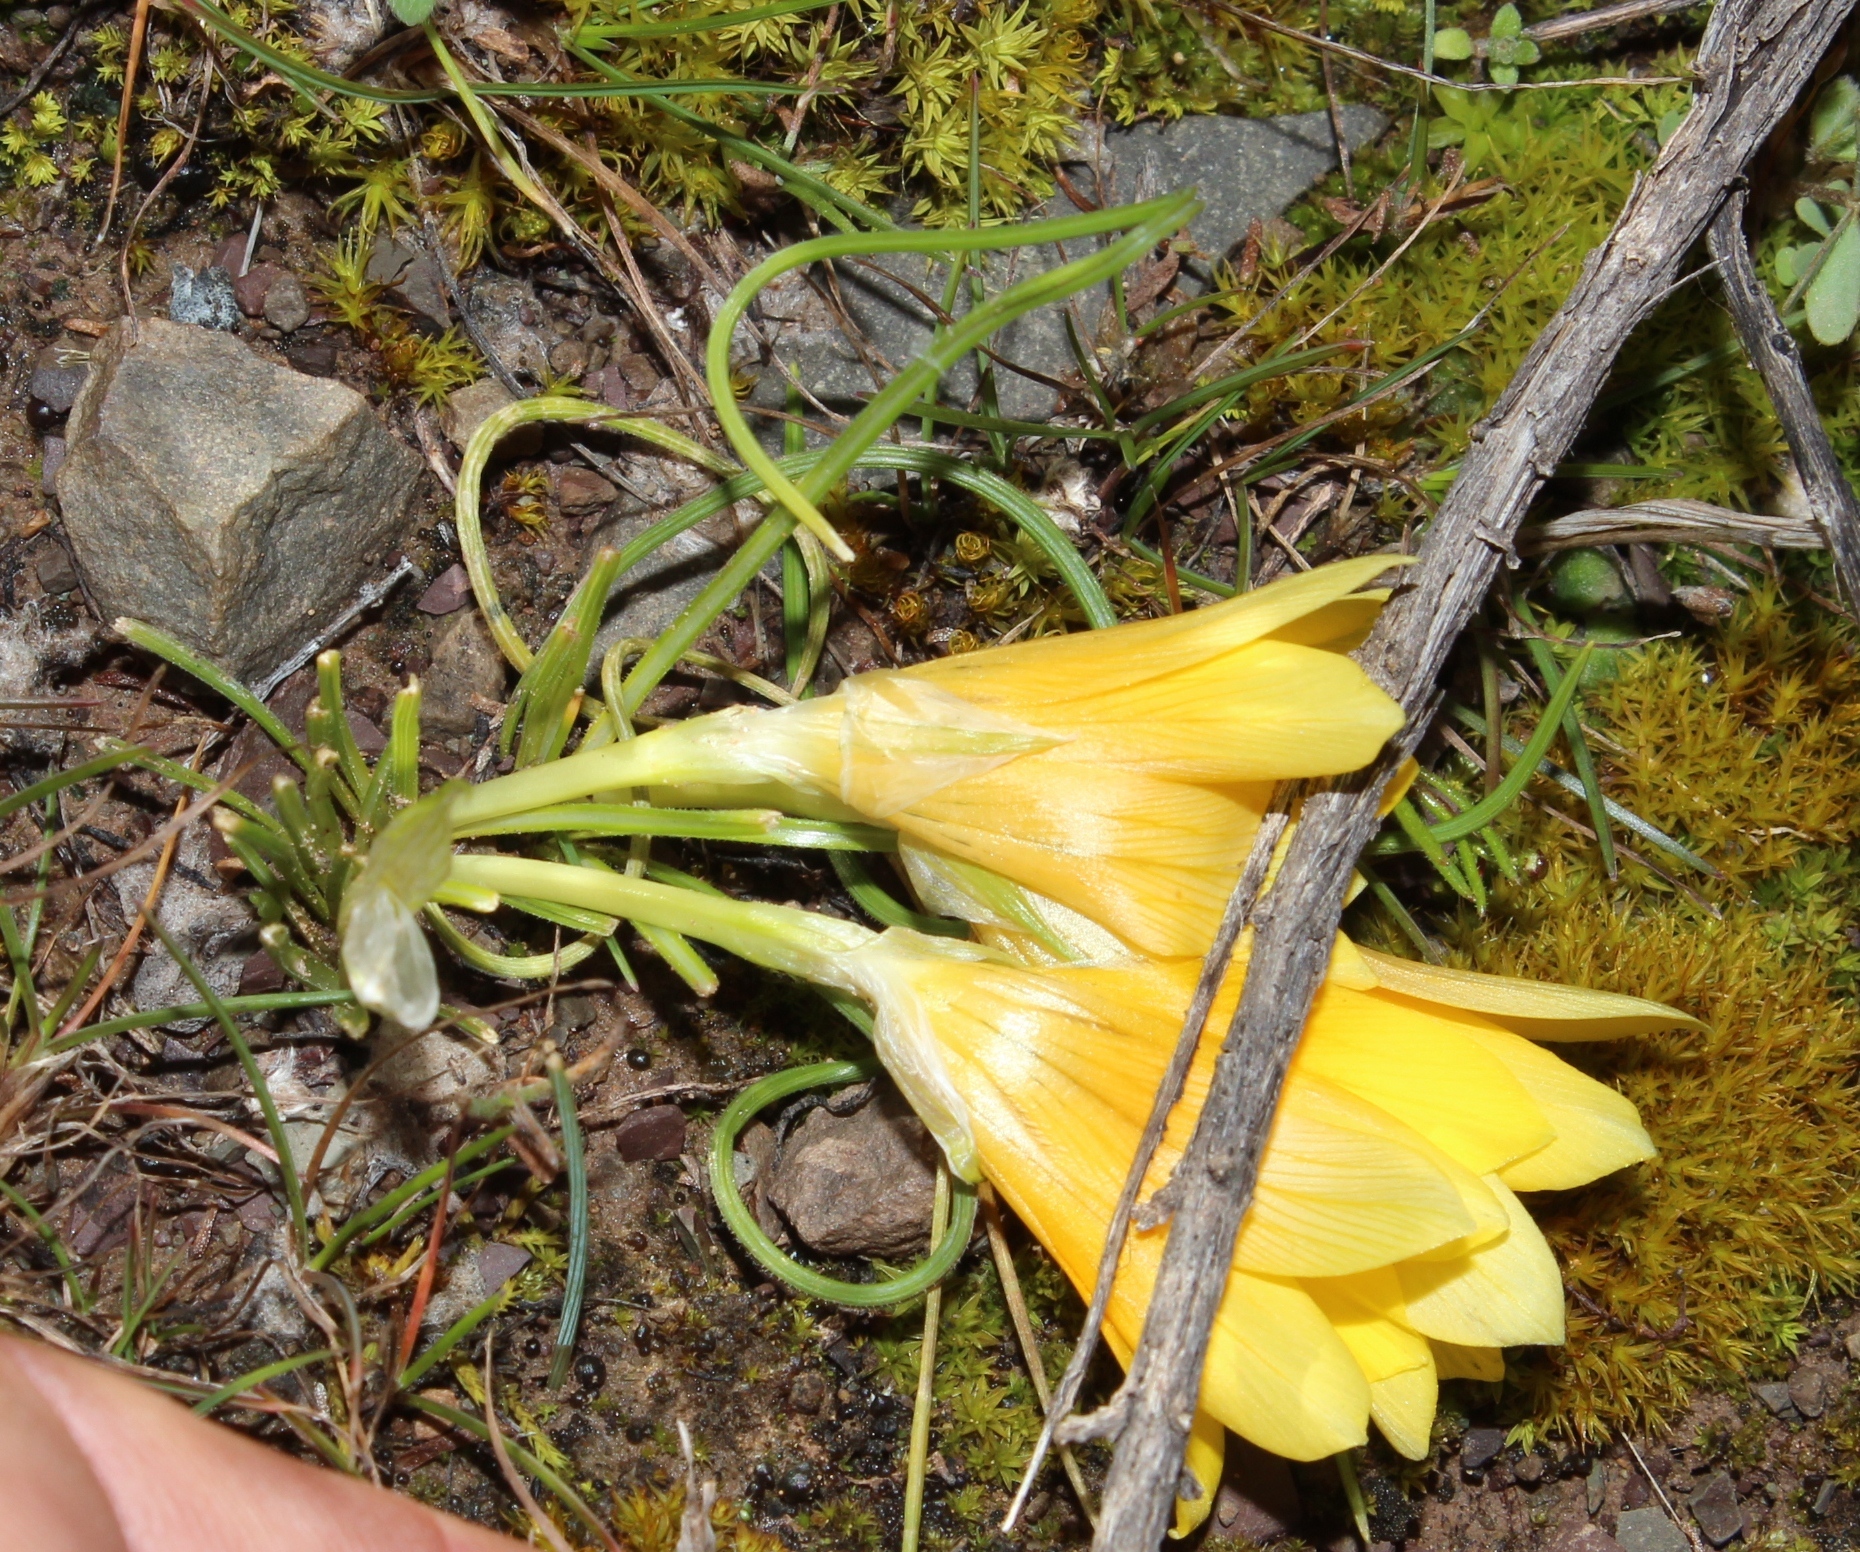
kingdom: Plantae
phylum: Tracheophyta
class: Liliopsida
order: Asparagales
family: Iridaceae
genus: Romulea
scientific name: Romulea tortuosa
